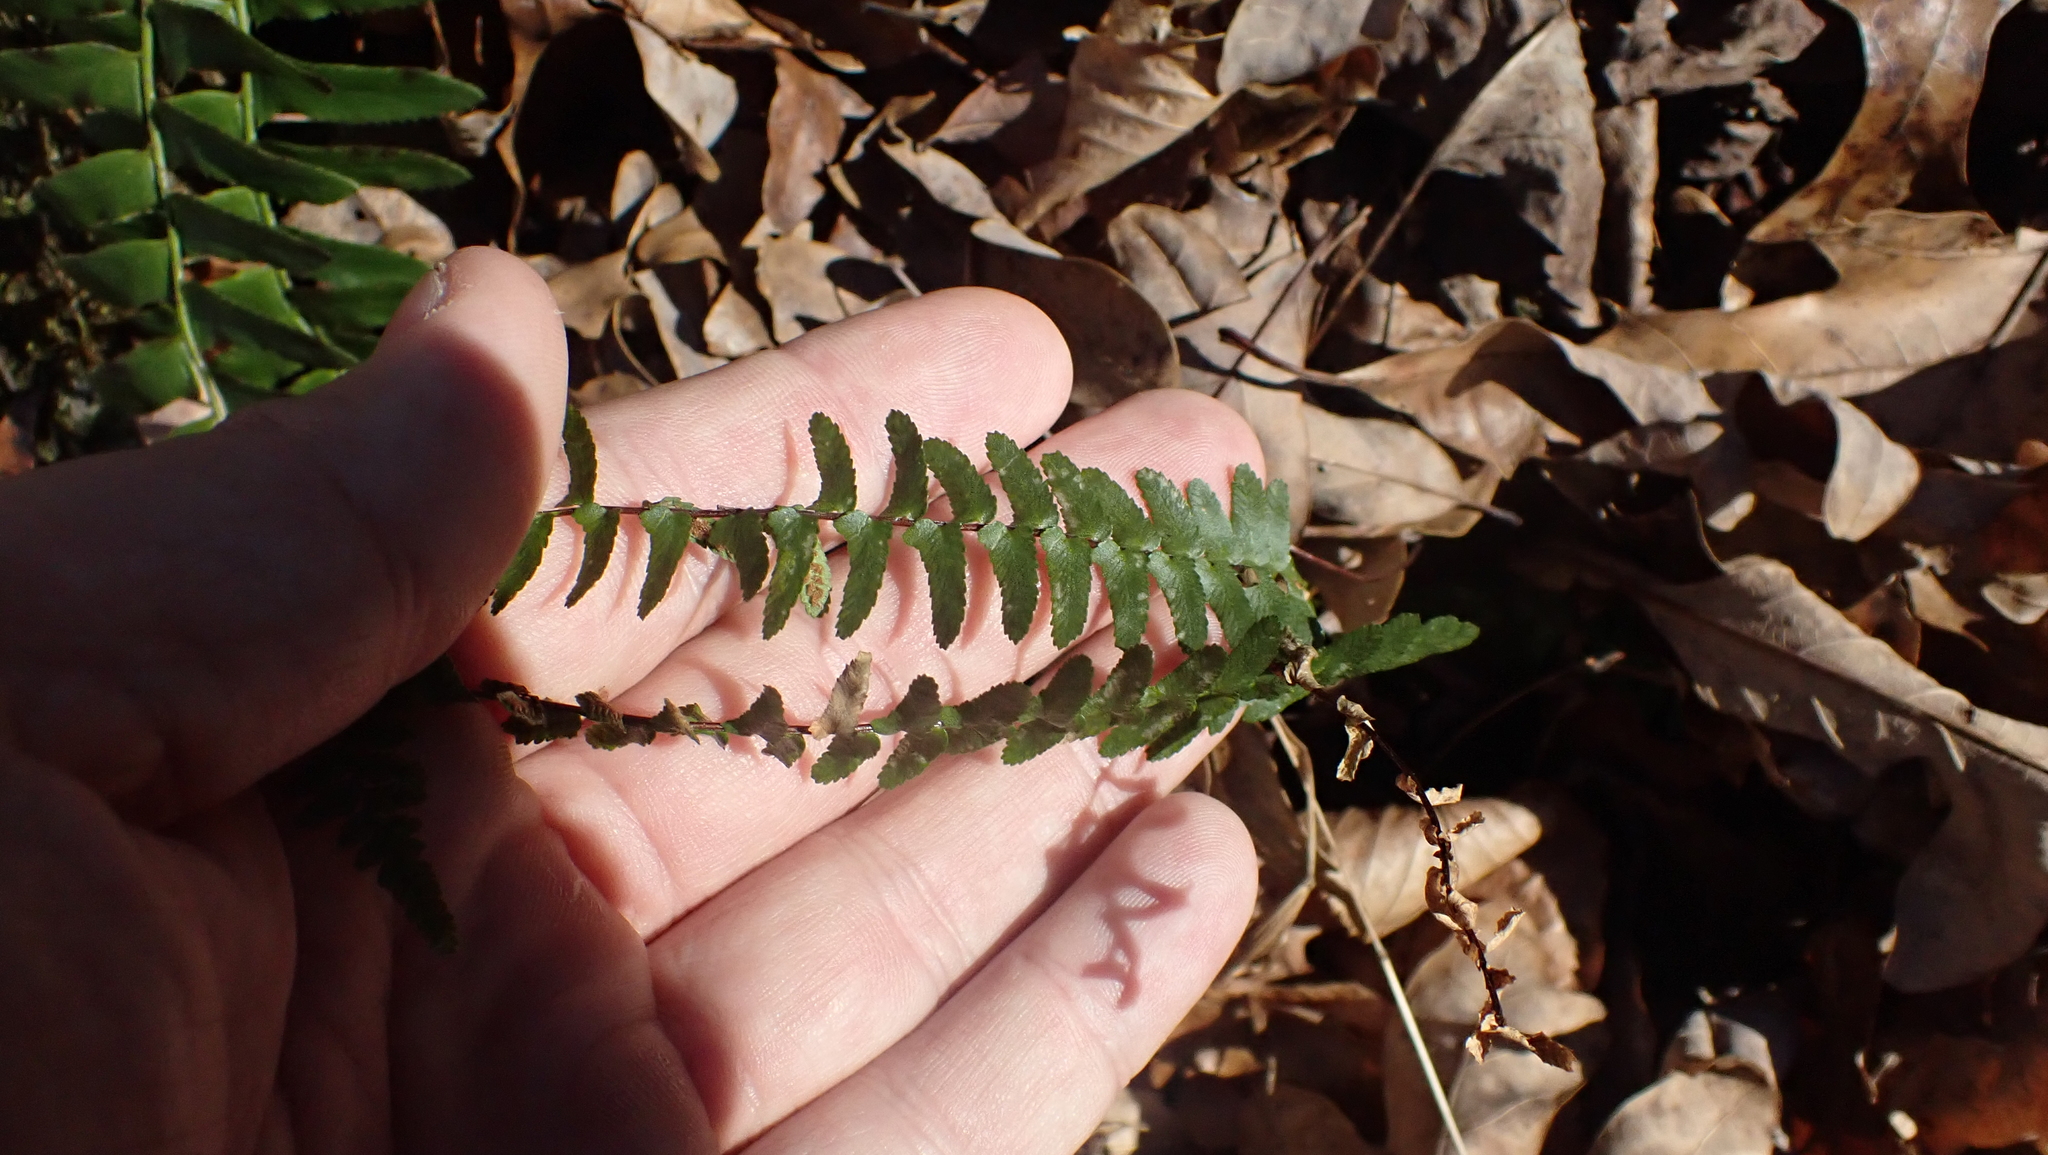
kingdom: Plantae
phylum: Tracheophyta
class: Polypodiopsida
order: Polypodiales
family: Aspleniaceae
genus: Asplenium
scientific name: Asplenium platyneuron
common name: Ebony spleenwort
